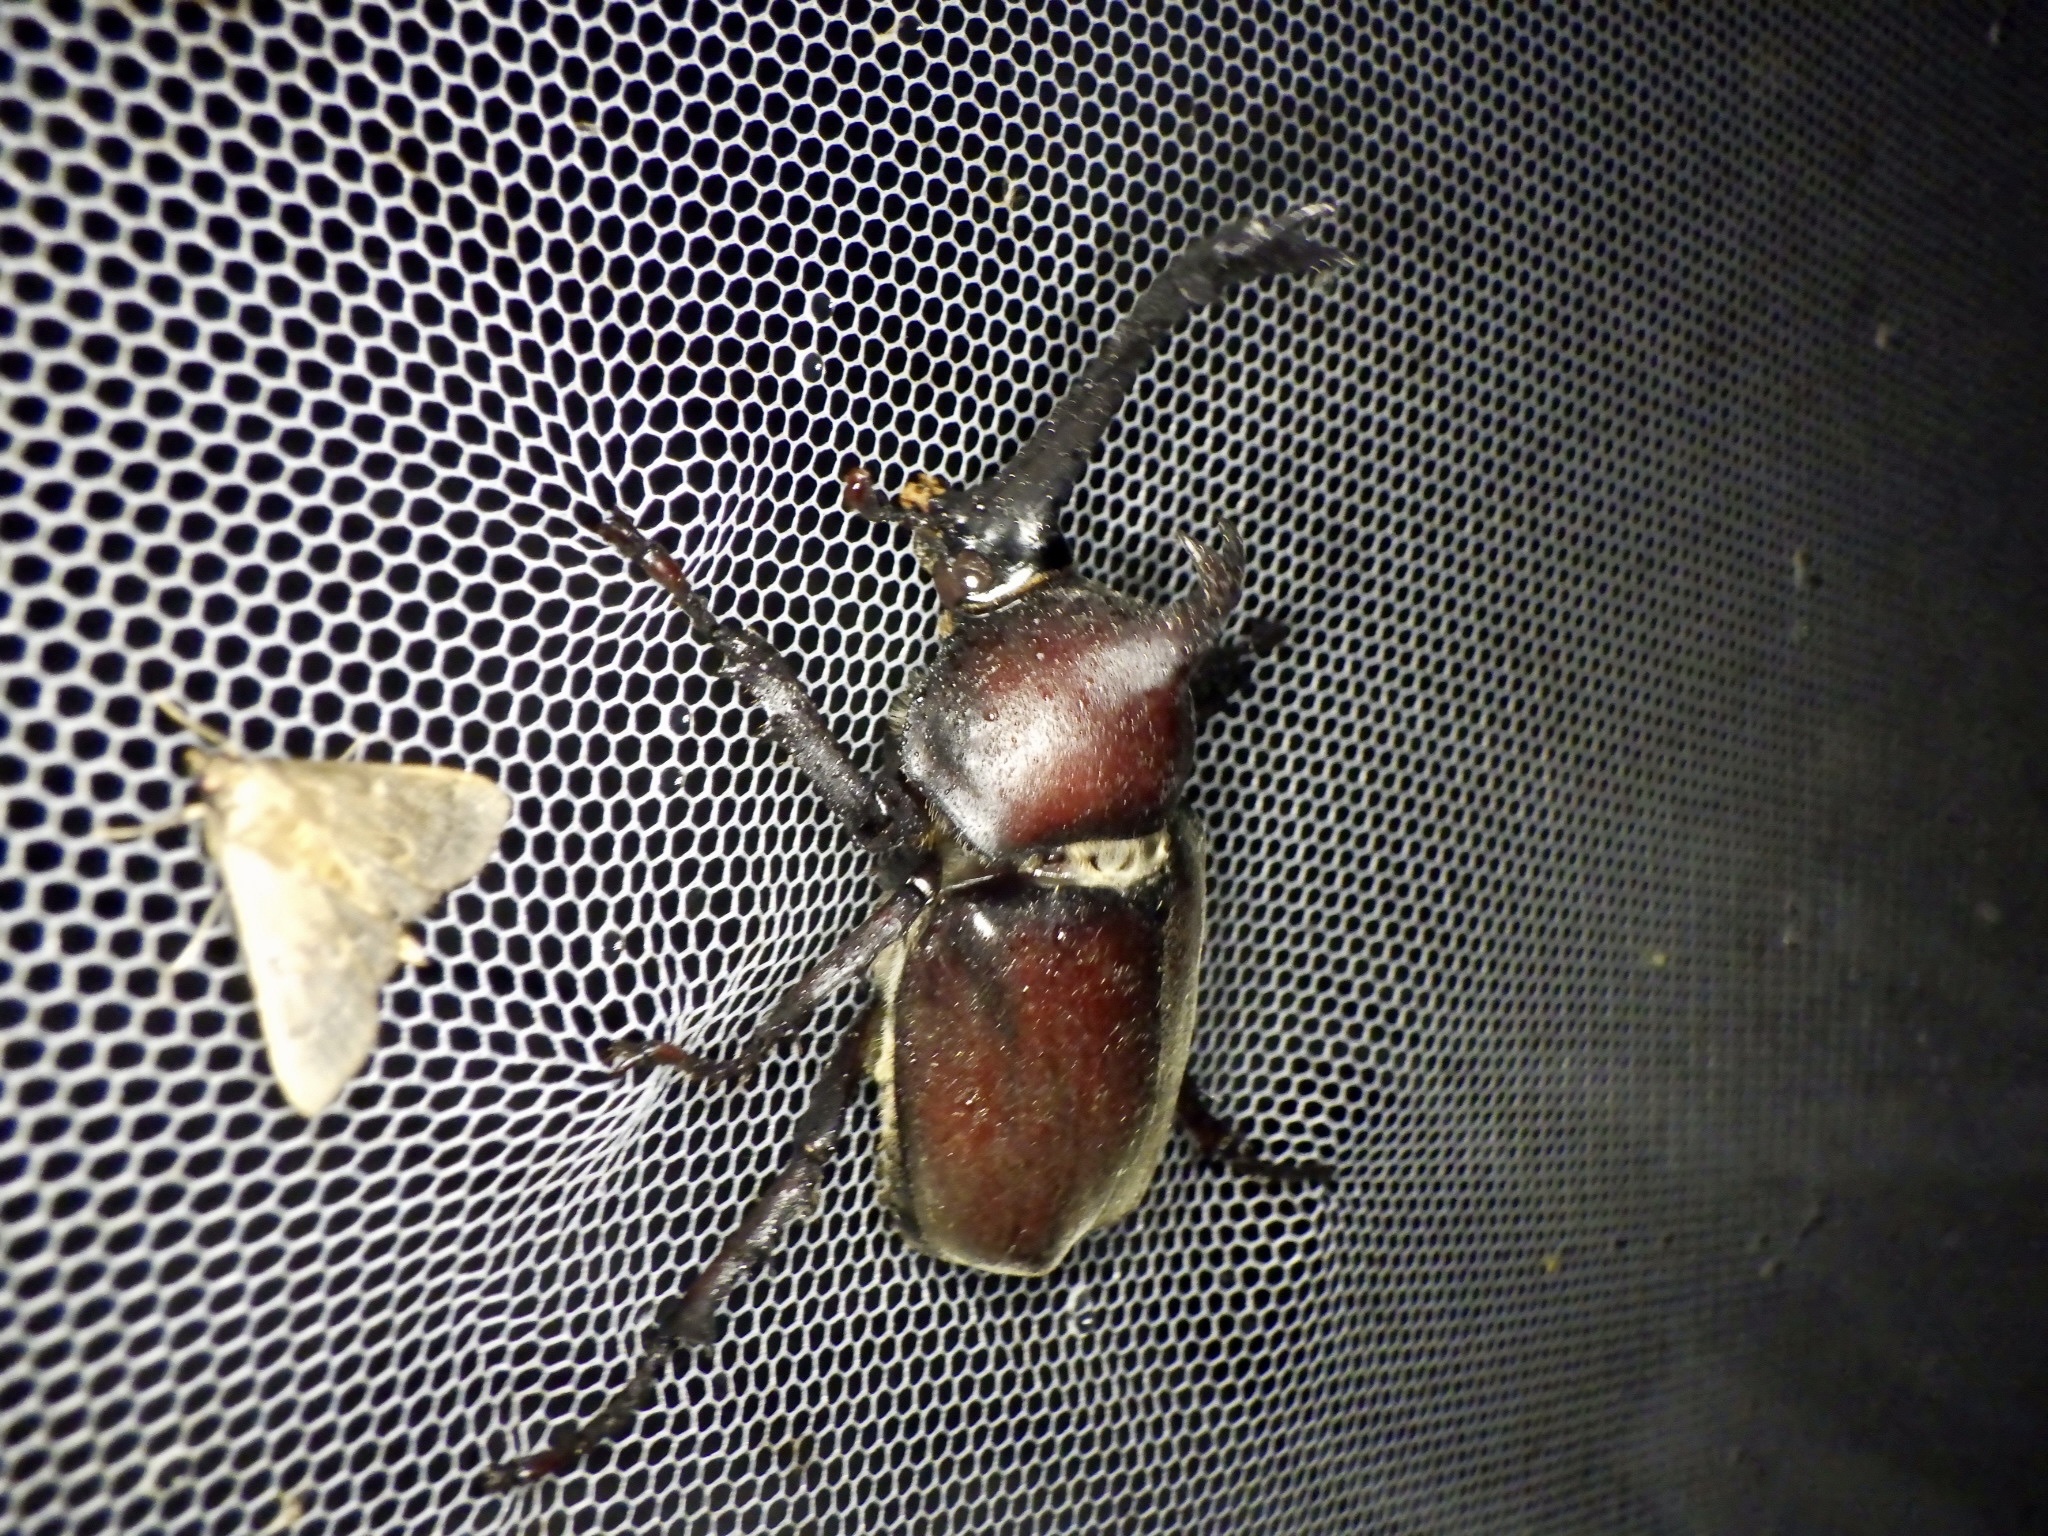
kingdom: Animalia
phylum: Arthropoda
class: Insecta
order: Coleoptera
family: Scarabaeidae
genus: Trypoxylus
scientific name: Trypoxylus dichotomus
